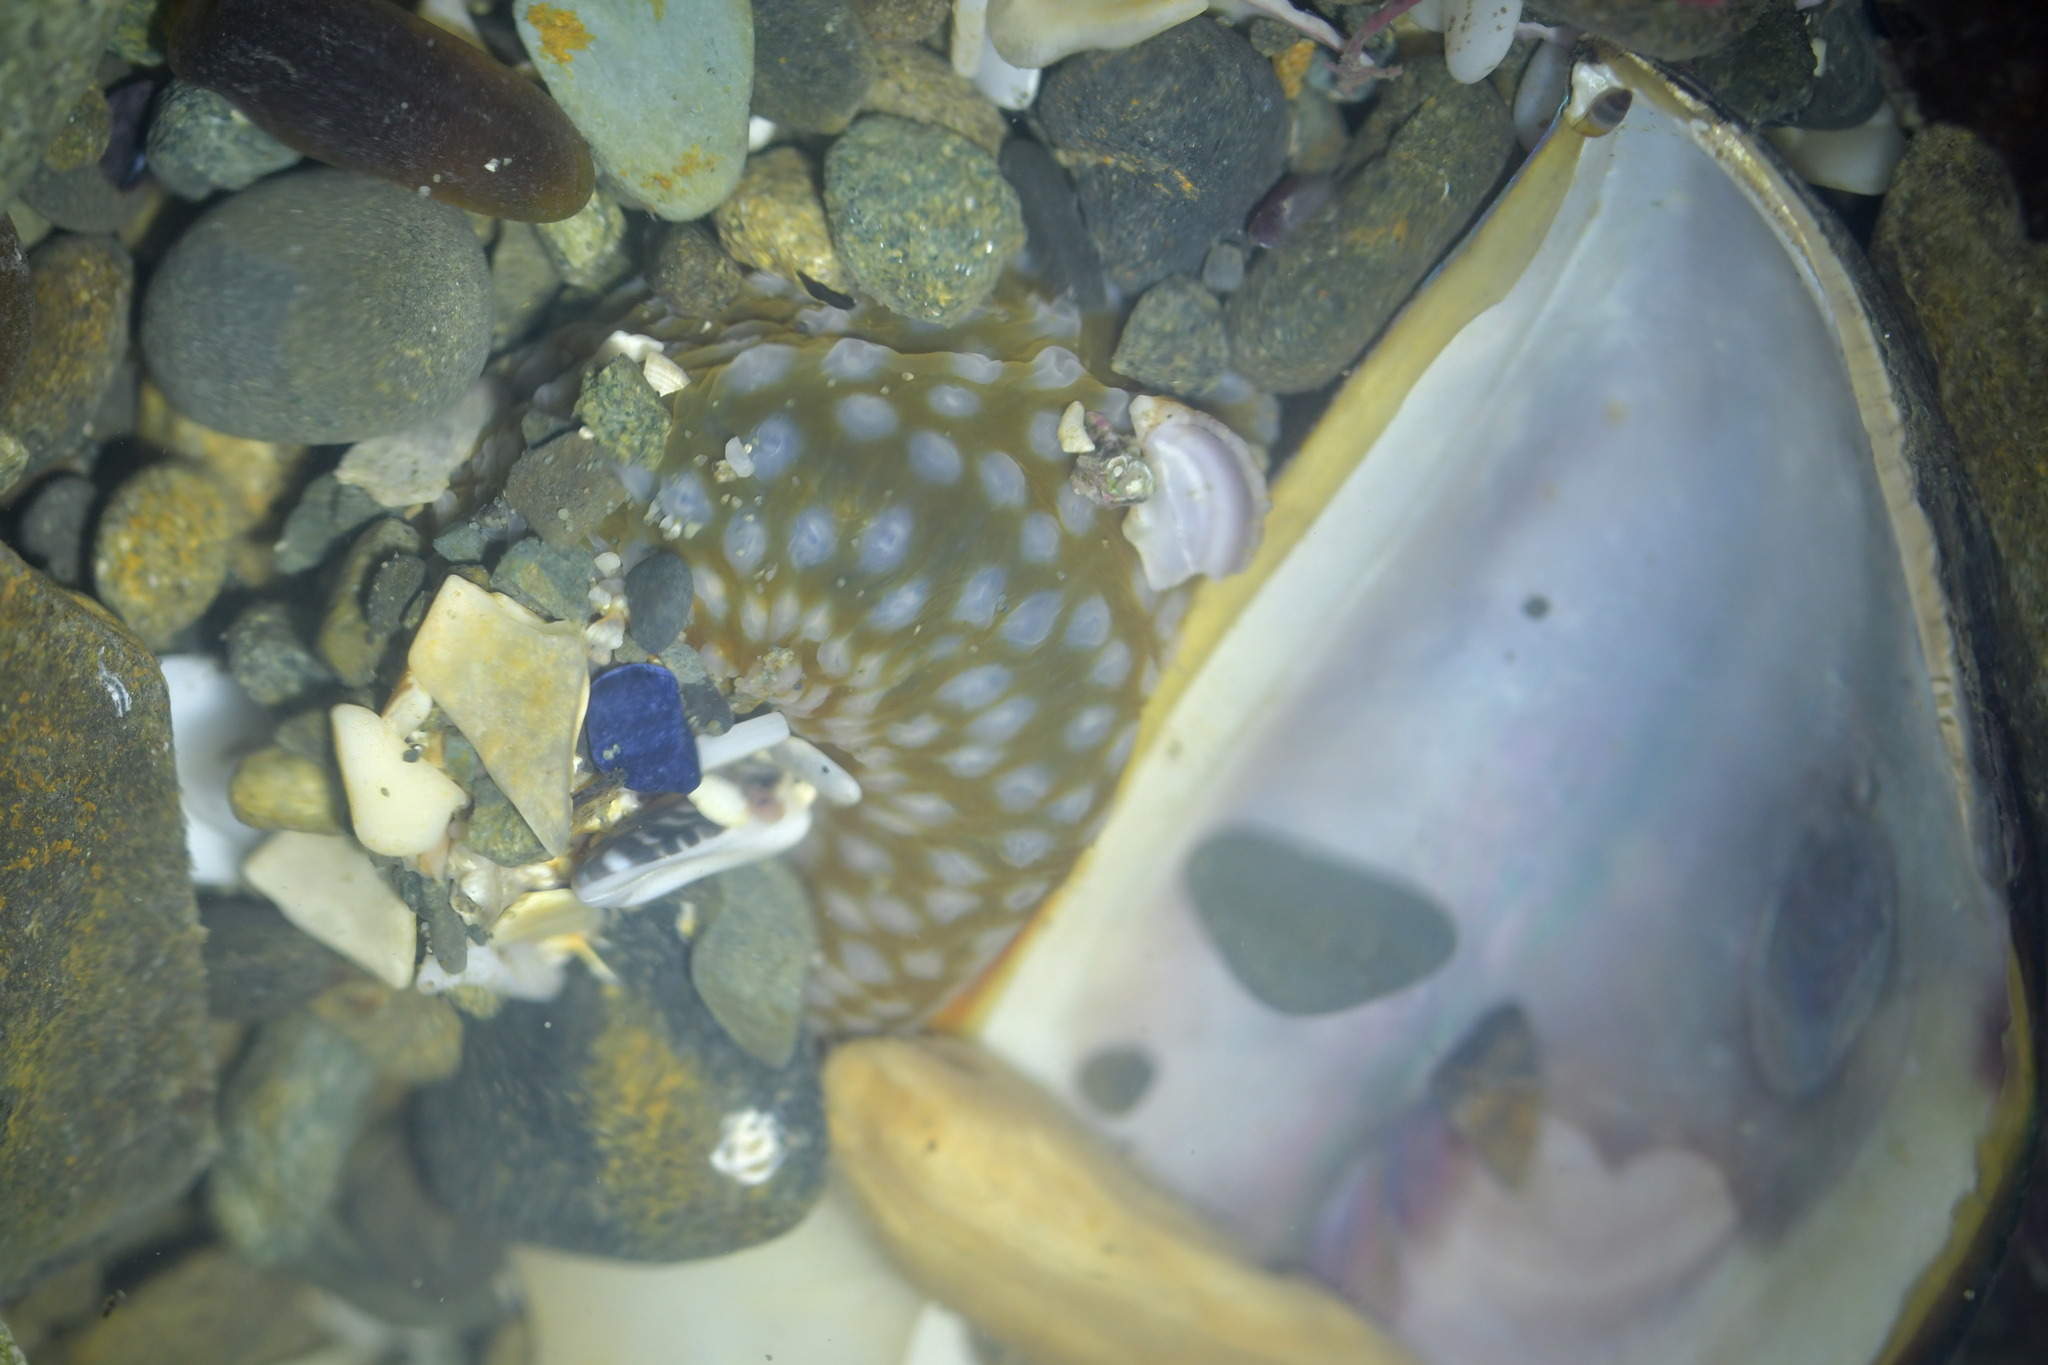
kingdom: Animalia
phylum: Cnidaria
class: Anthozoa
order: Actiniaria
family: Actiniidae
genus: Oulactis
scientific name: Oulactis muscosa
